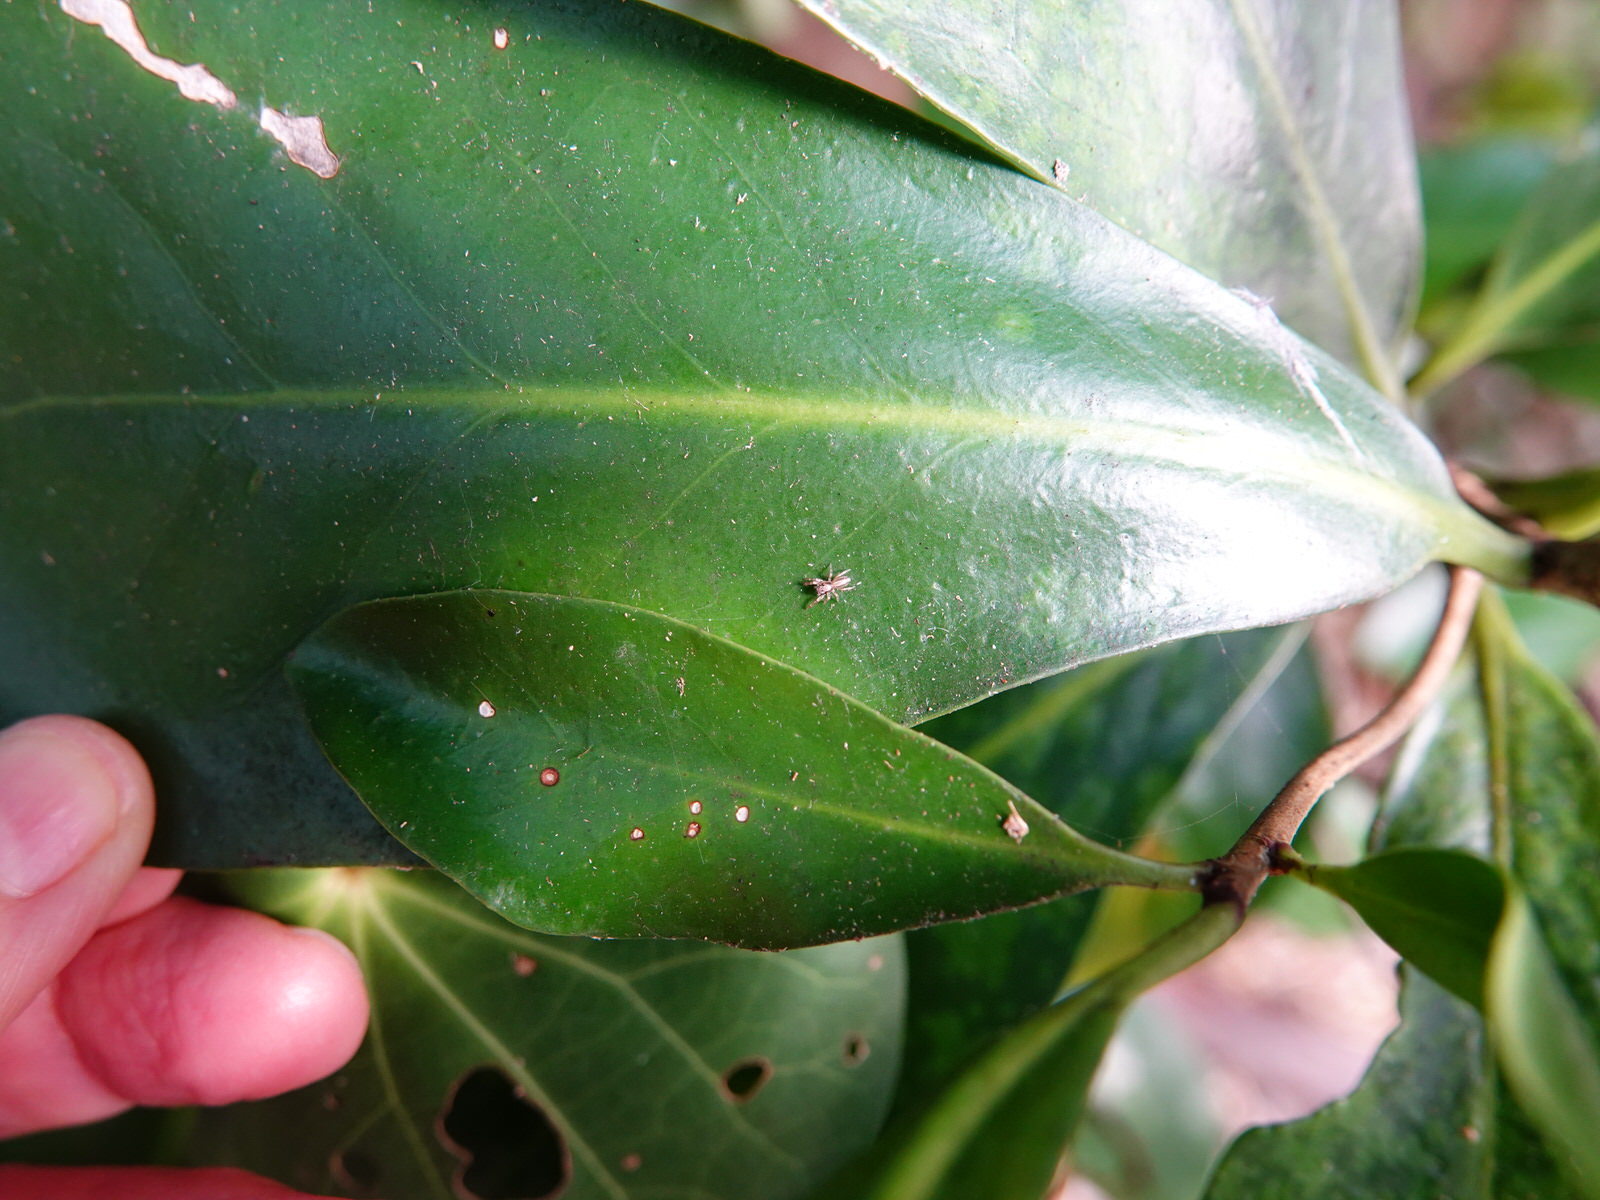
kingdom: Animalia
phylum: Arthropoda
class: Arachnida
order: Araneae
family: Salticidae
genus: Trite
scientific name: Trite mustilina
